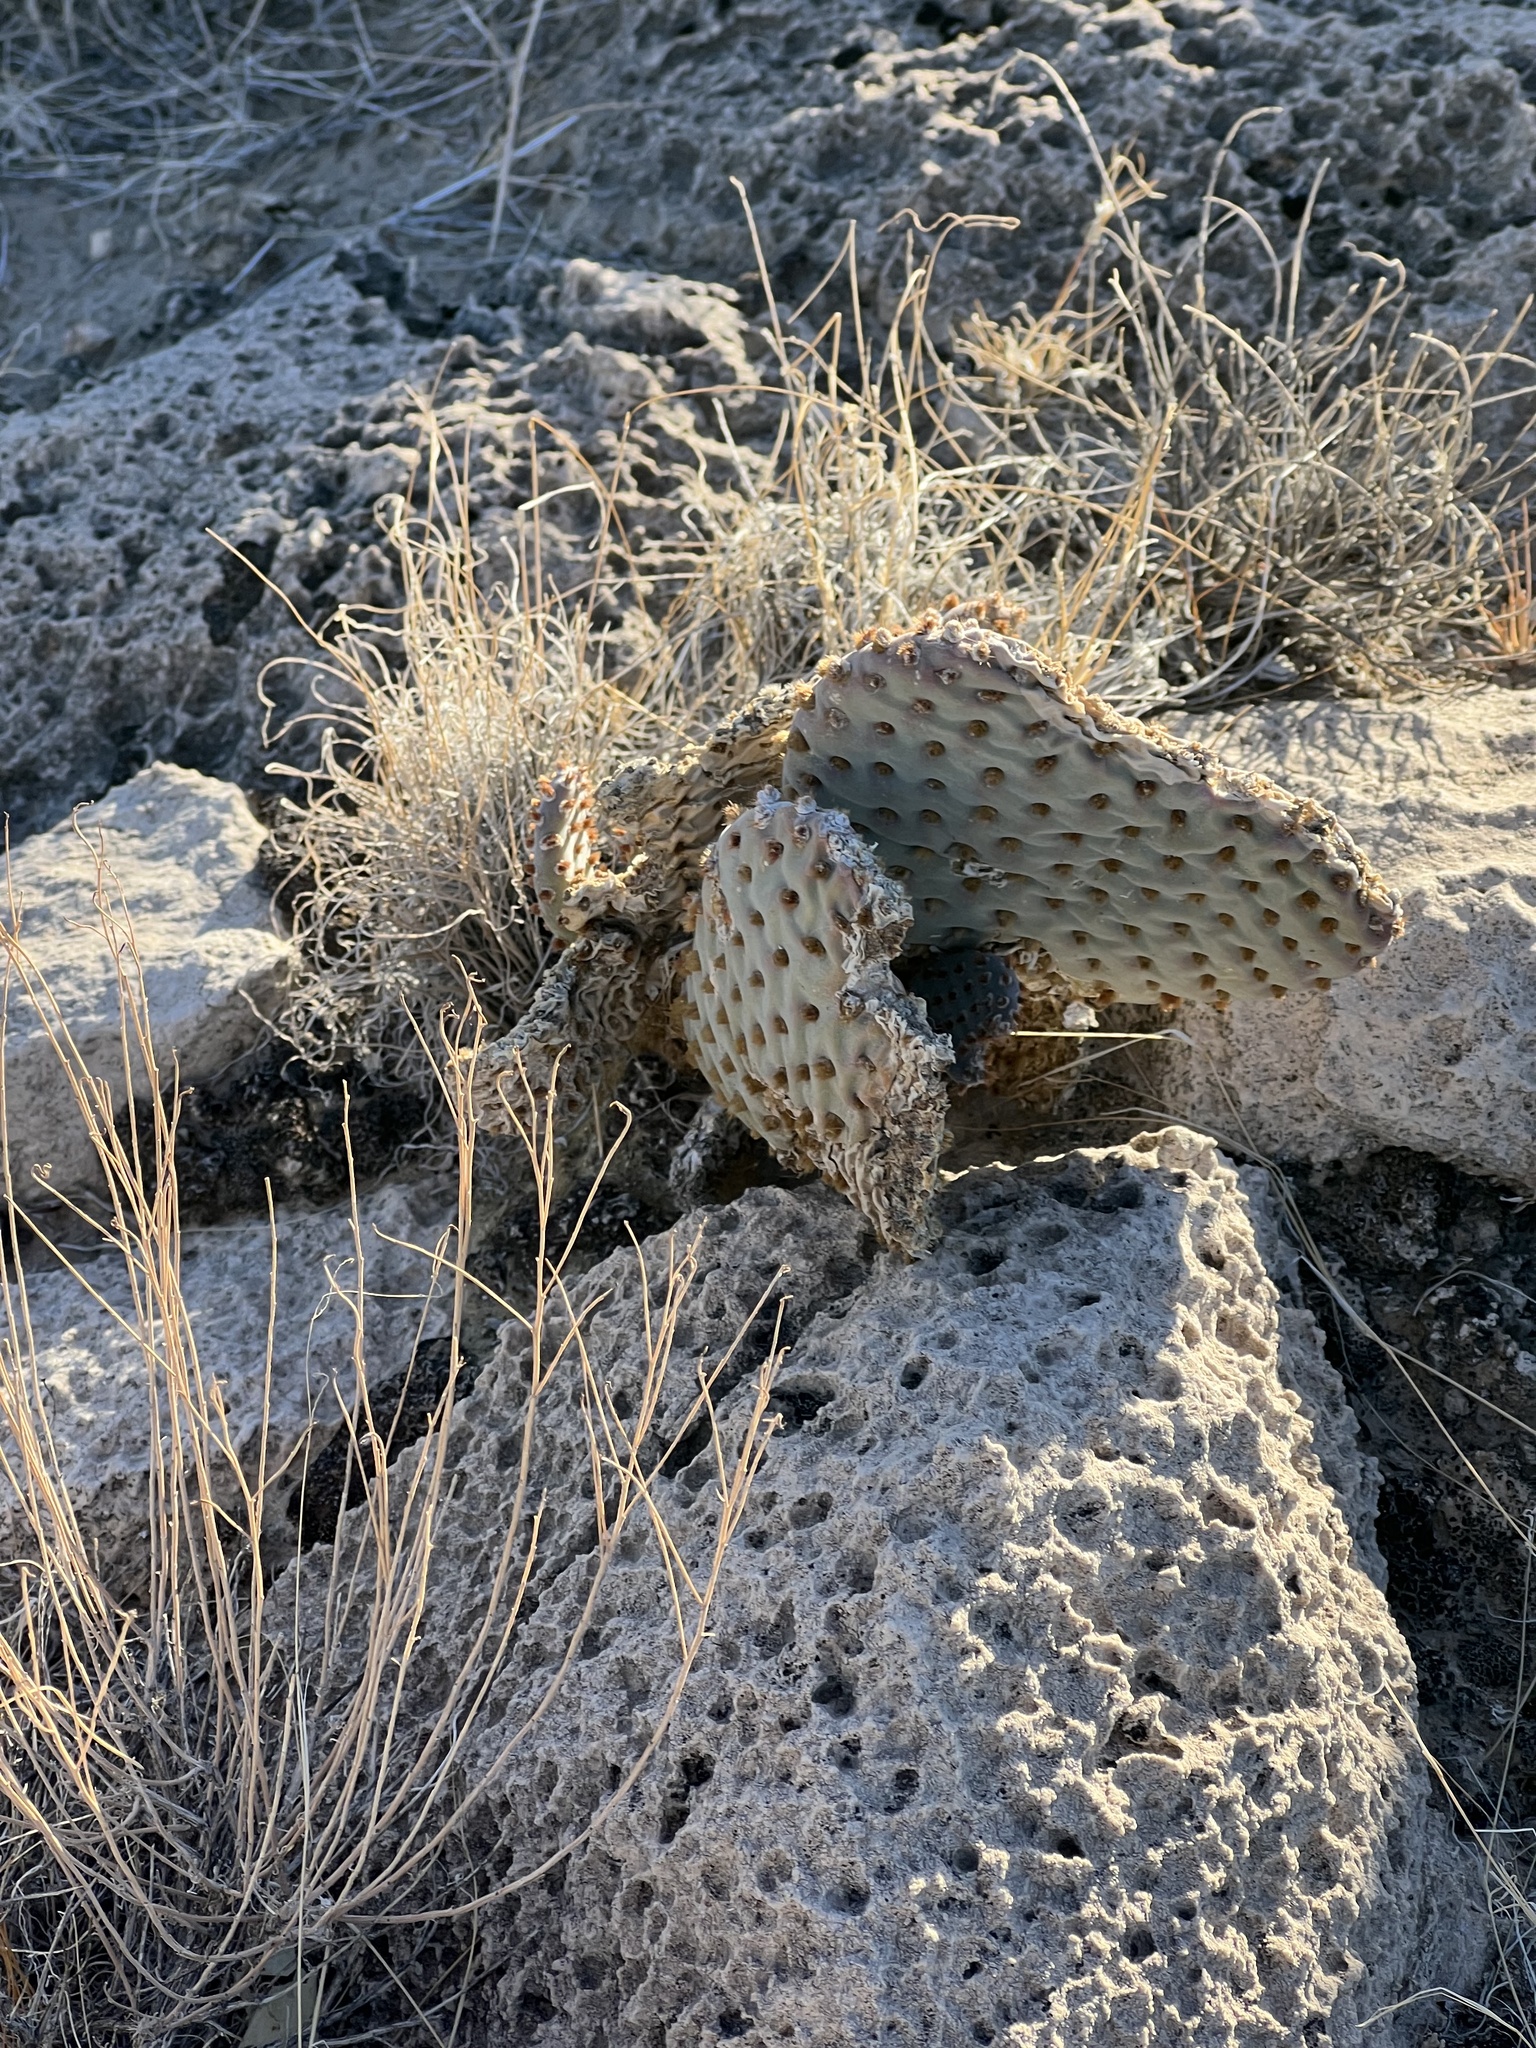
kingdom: Plantae
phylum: Tracheophyta
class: Magnoliopsida
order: Caryophyllales
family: Cactaceae
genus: Opuntia
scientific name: Opuntia basilaris
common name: Beavertail prickly-pear
